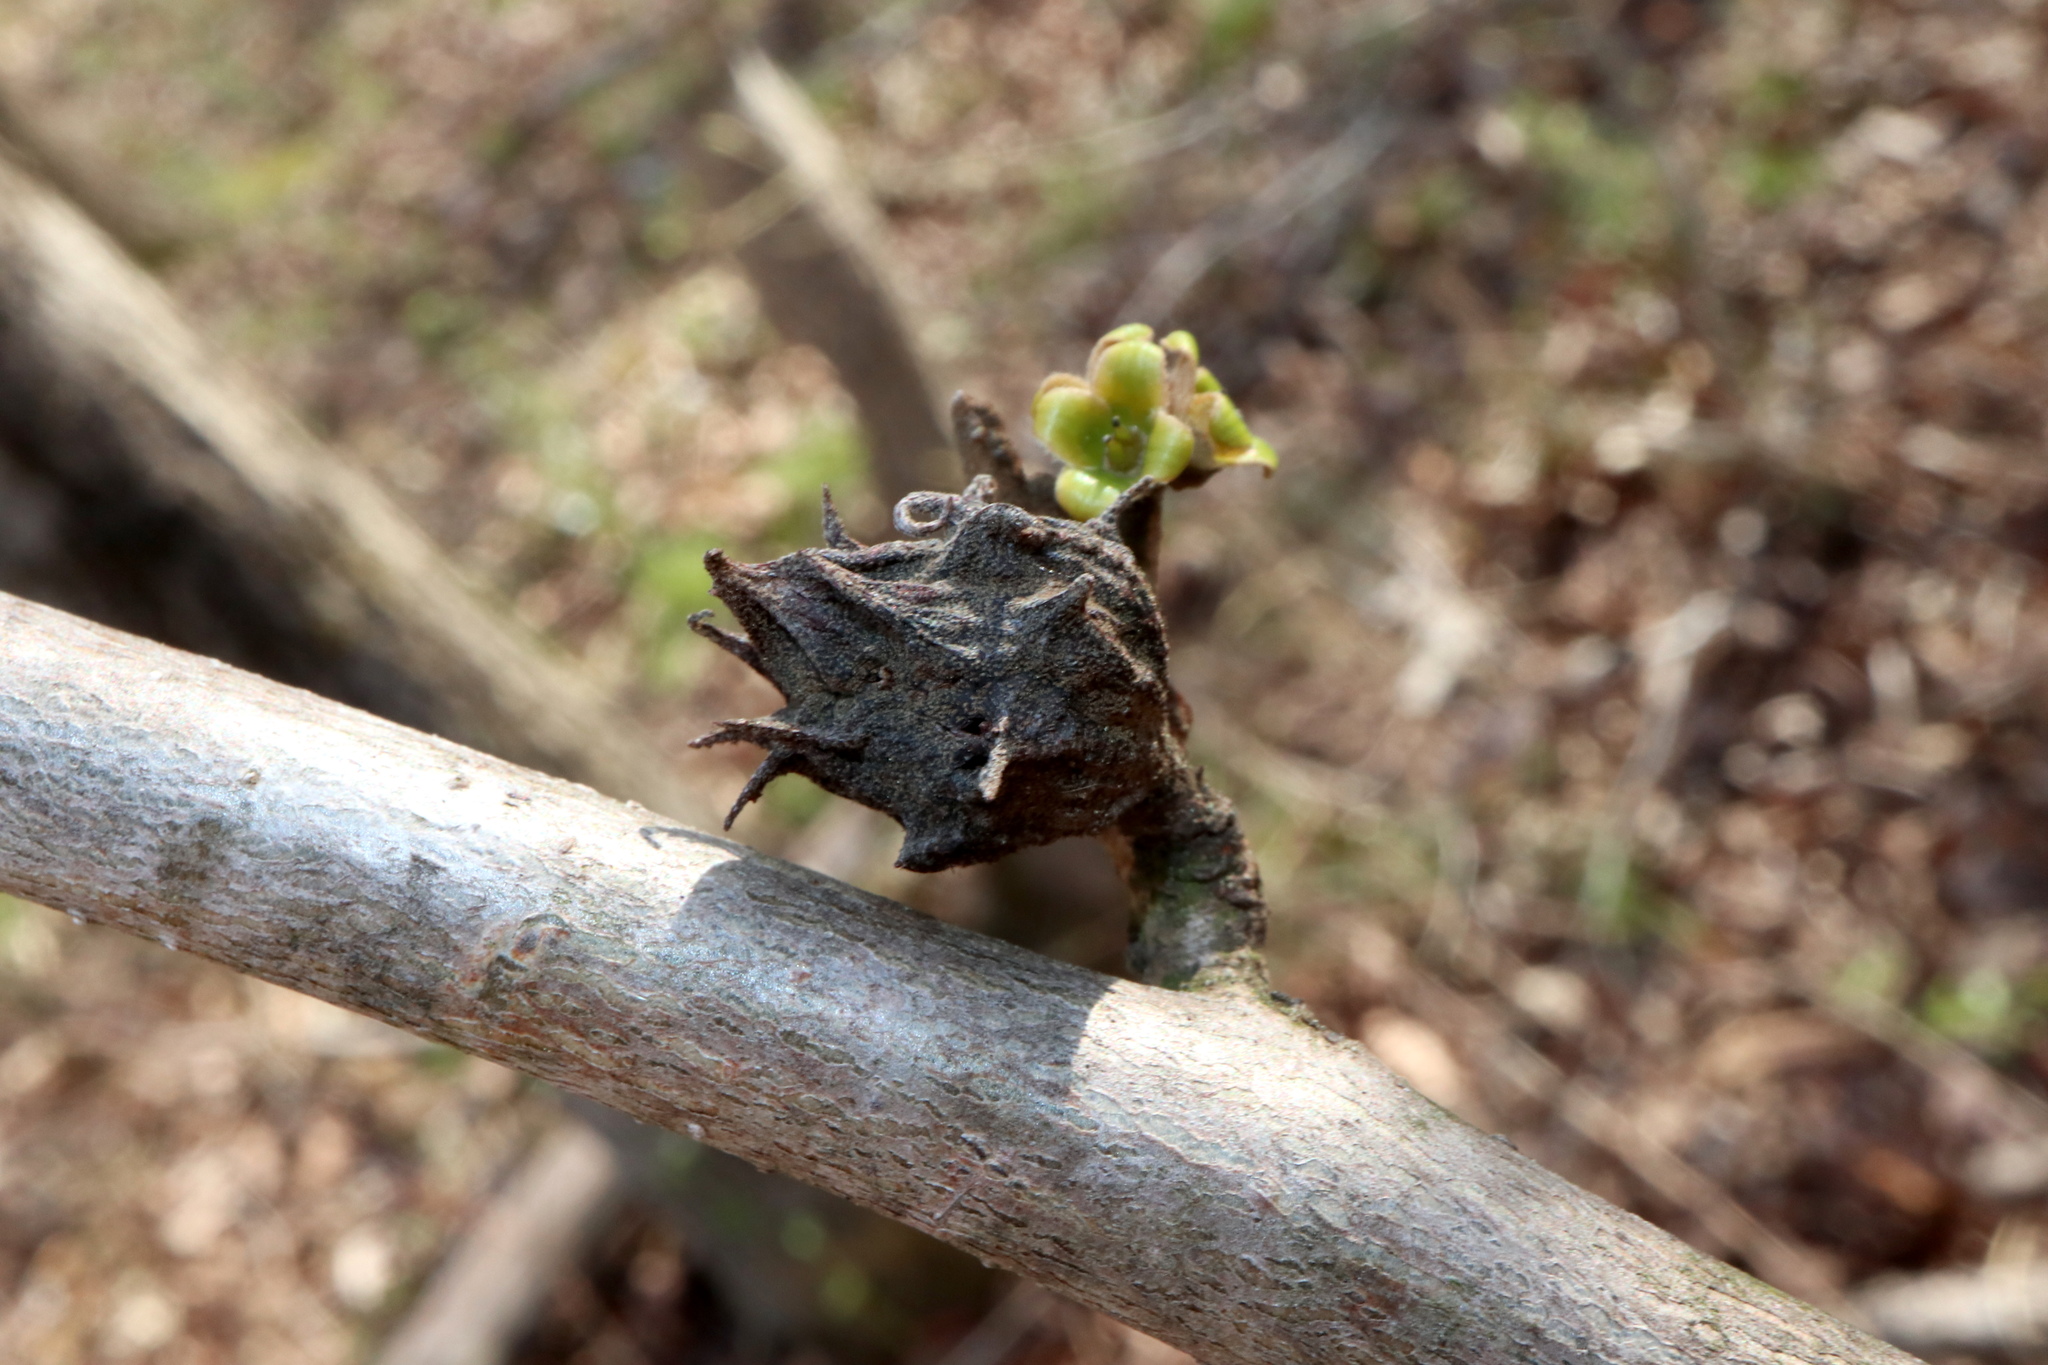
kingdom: Animalia
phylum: Arthropoda
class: Insecta
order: Hemiptera
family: Aphididae
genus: Hamamelistes
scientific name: Hamamelistes spinosus
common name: Witch hazel gall aphid
